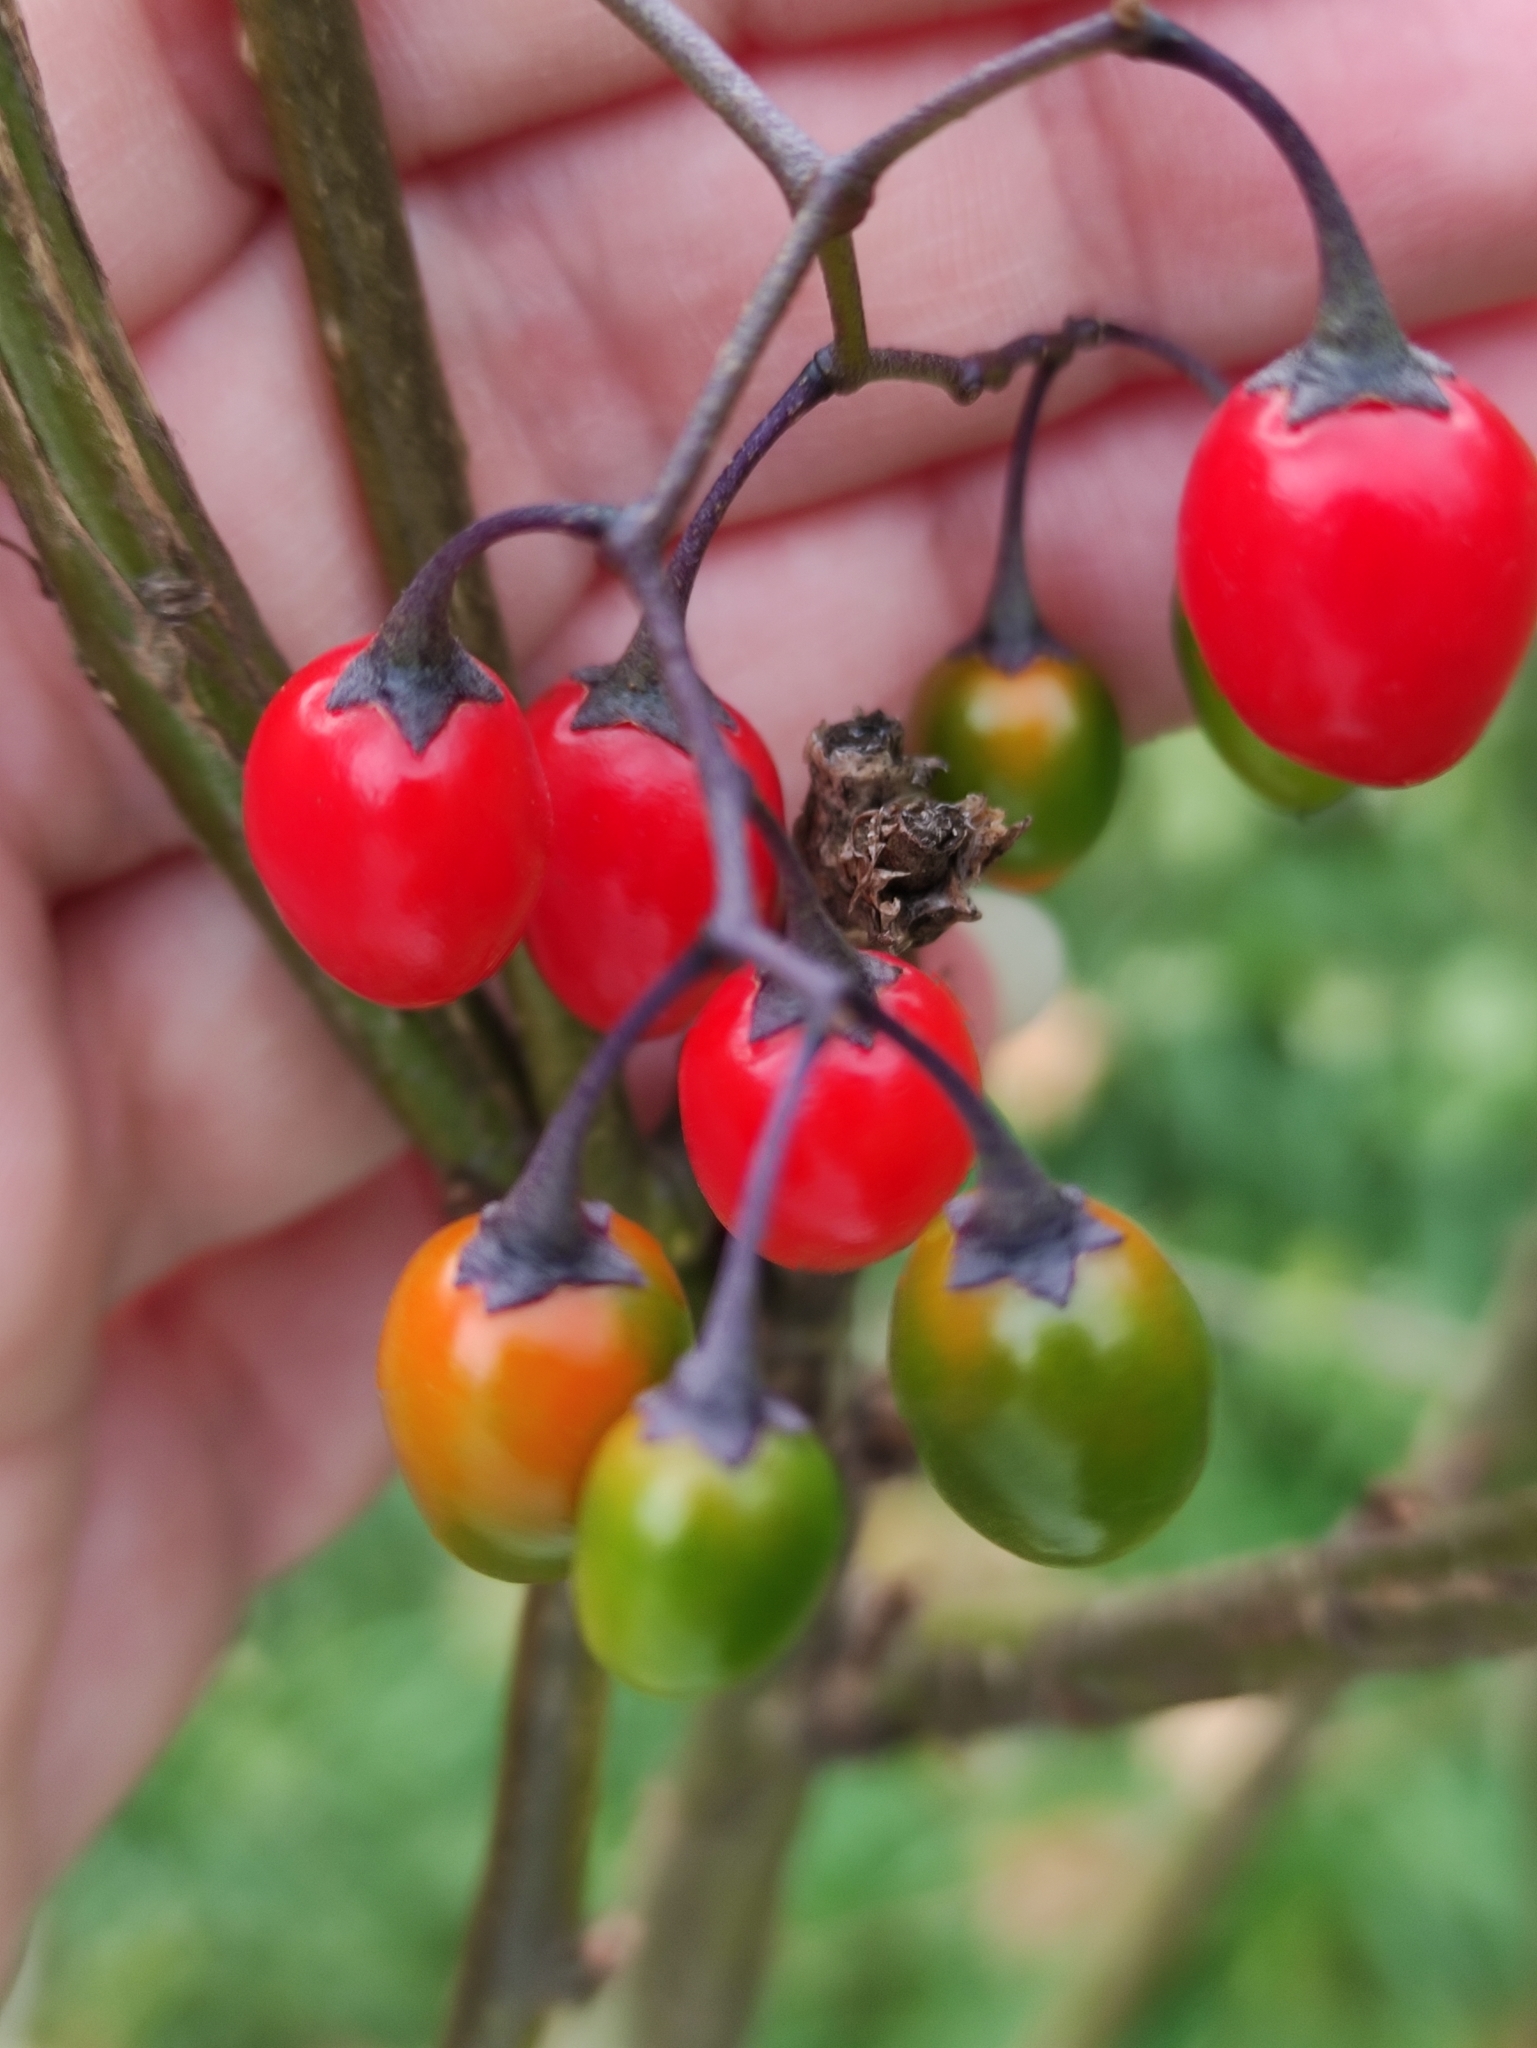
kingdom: Plantae
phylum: Tracheophyta
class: Magnoliopsida
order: Solanales
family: Solanaceae
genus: Solanum
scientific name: Solanum dulcamara
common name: Climbing nightshade
